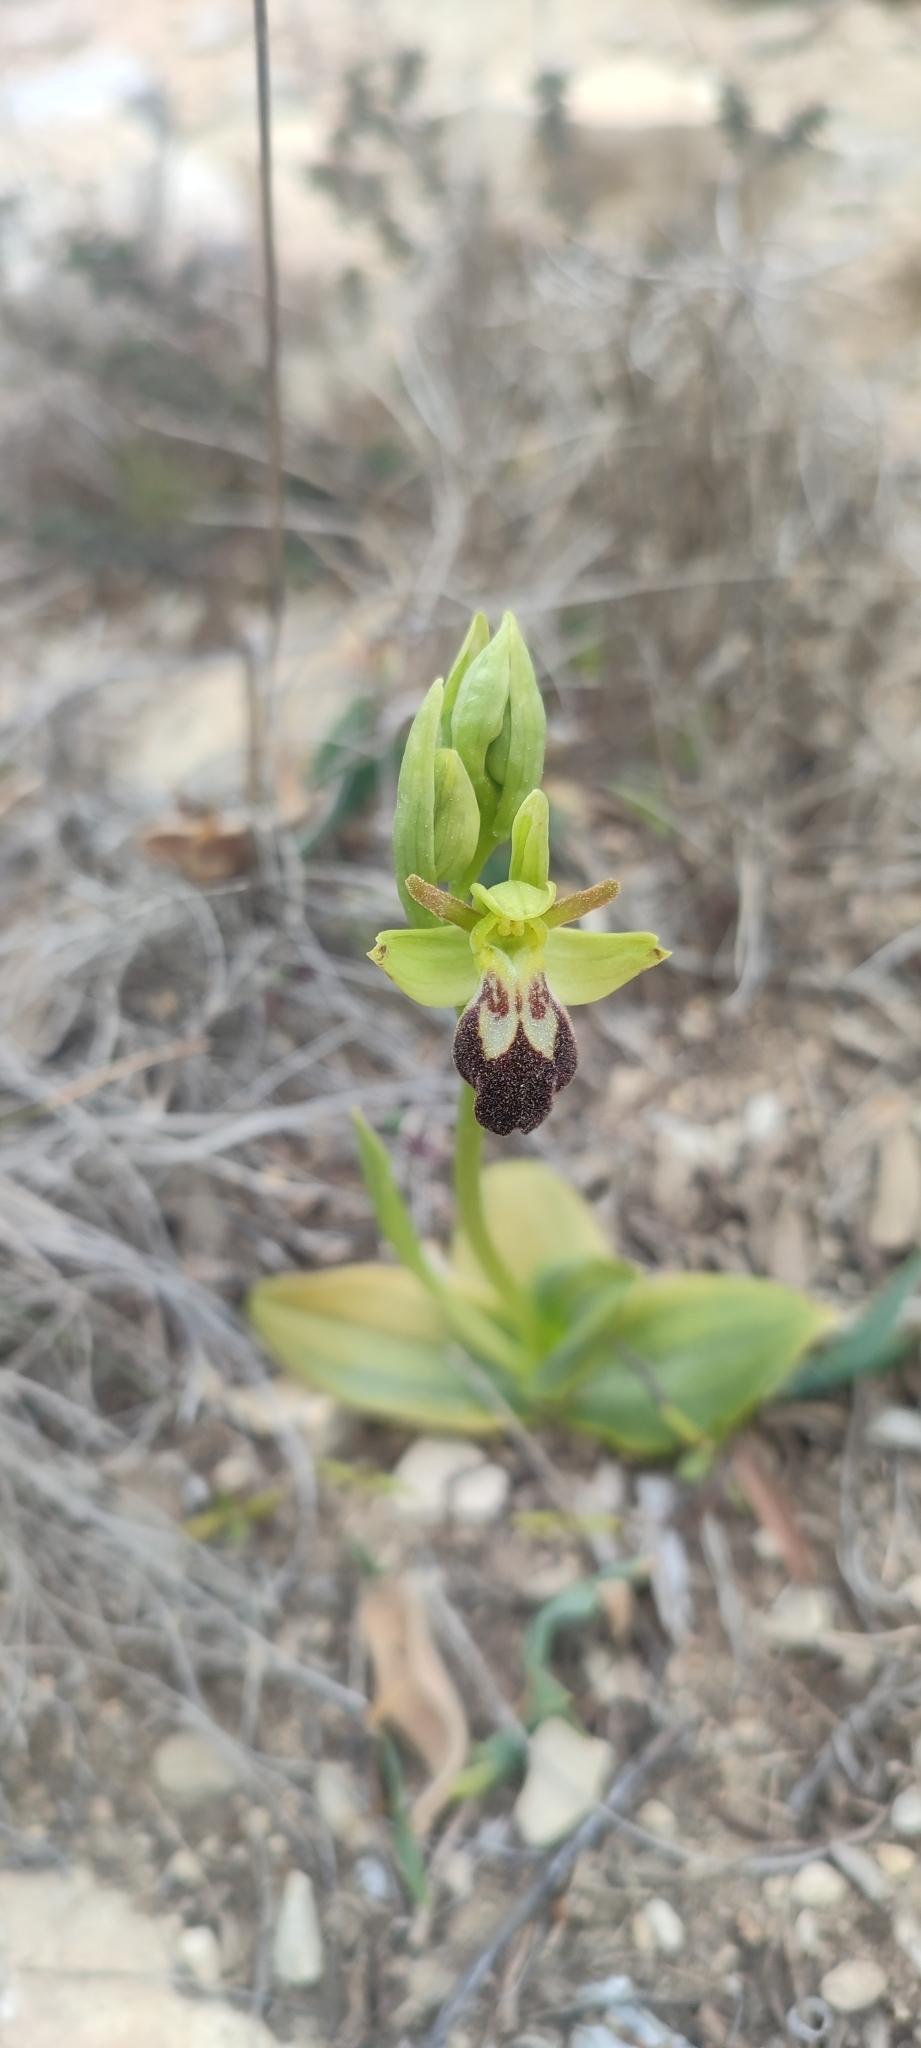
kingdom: Plantae
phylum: Tracheophyta
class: Liliopsida
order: Asparagales
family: Orchidaceae
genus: Ophrys
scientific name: Ophrys fusca
